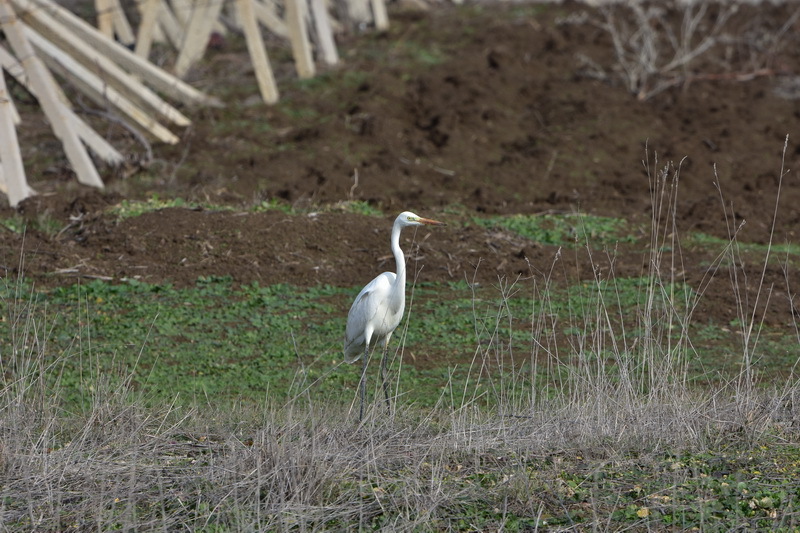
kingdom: Animalia
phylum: Chordata
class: Aves
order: Pelecaniformes
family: Ardeidae
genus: Ardea
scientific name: Ardea alba
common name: Great egret
